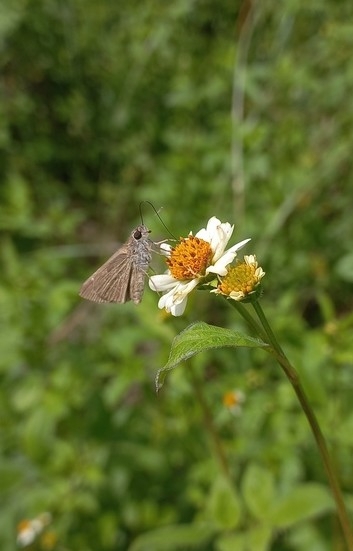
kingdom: Animalia
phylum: Arthropoda
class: Insecta
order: Lepidoptera
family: Hesperiidae
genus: Lerodea
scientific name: Lerodea eufala
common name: Eufala skipper
